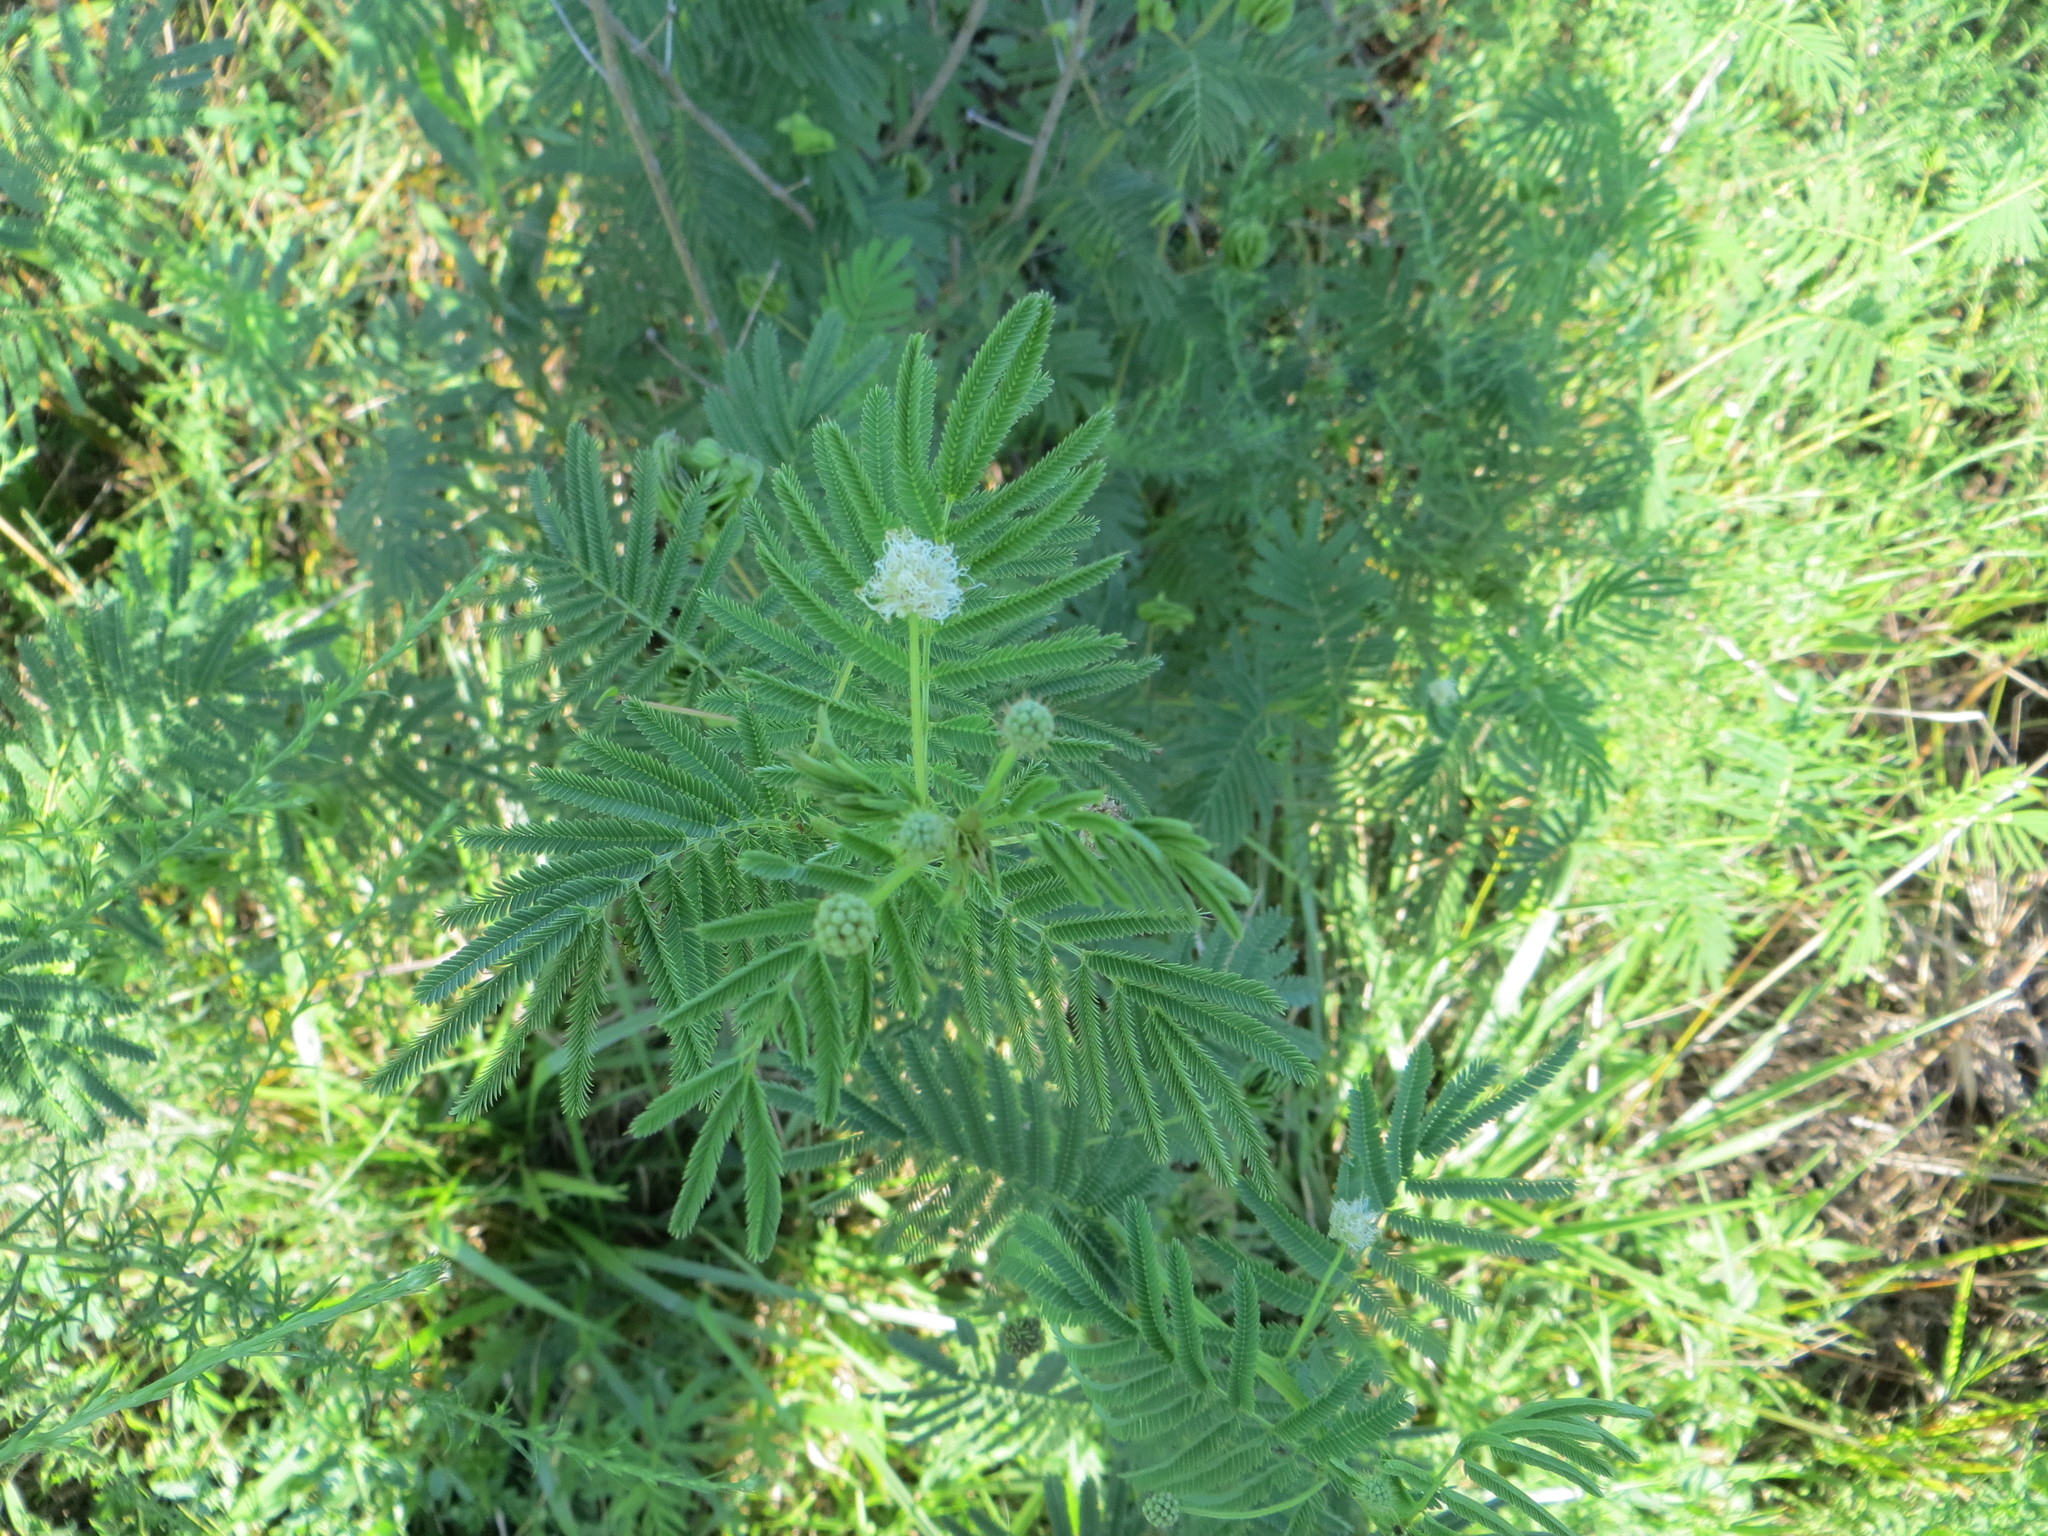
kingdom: Plantae
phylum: Tracheophyta
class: Magnoliopsida
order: Fabales
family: Fabaceae
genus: Desmanthus
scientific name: Desmanthus illinoensis
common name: Illinois bundle-flower
